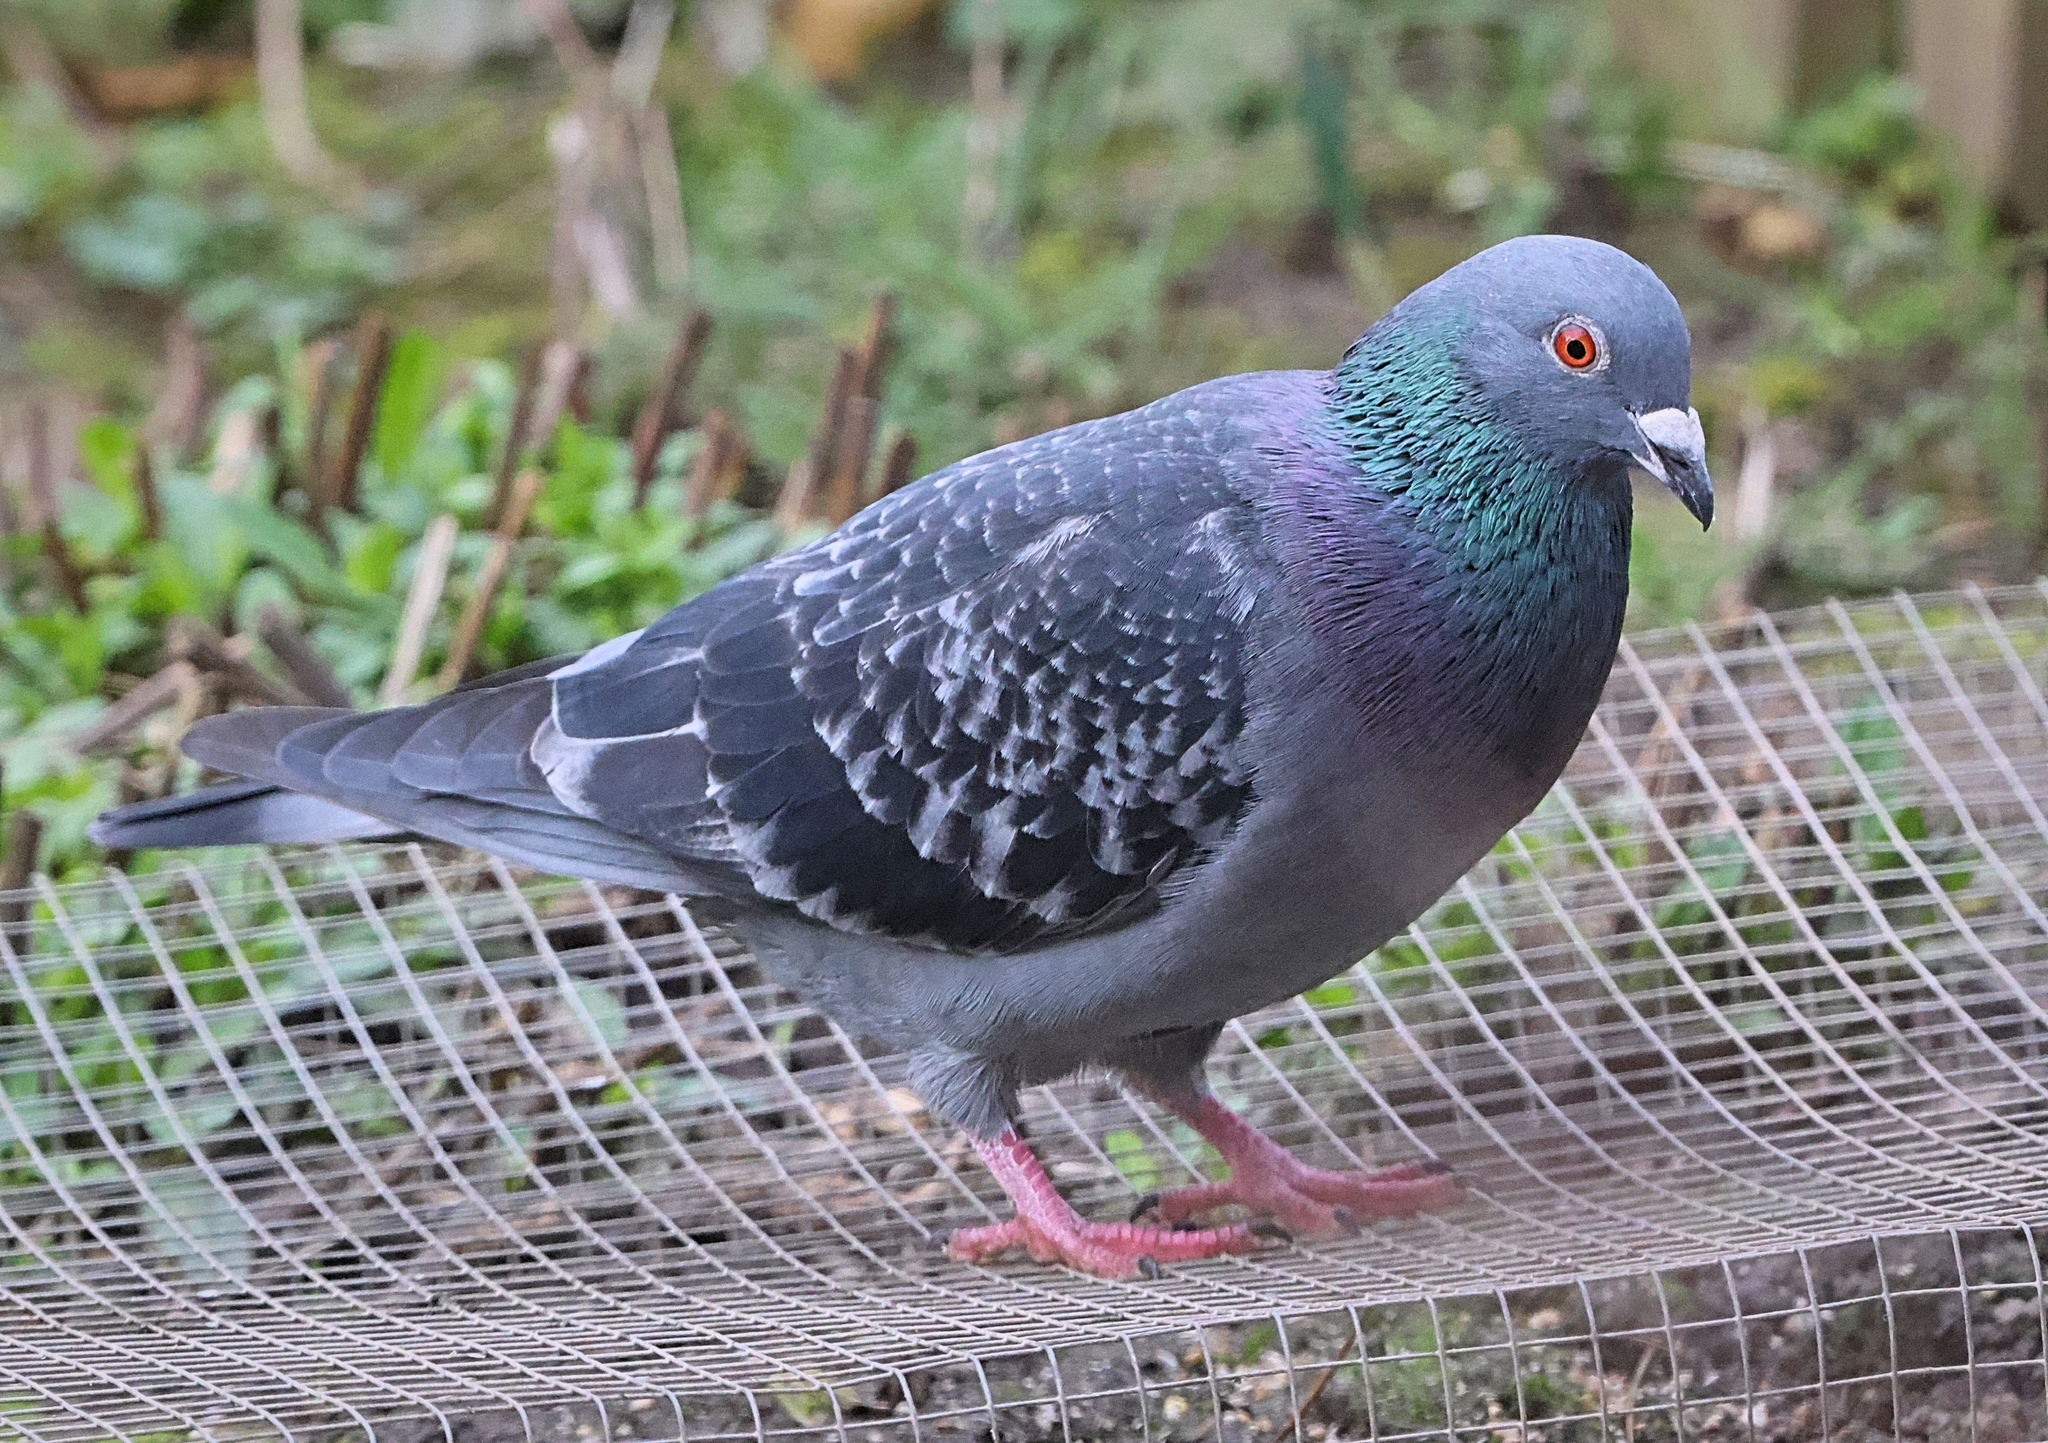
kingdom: Animalia
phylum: Chordata
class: Aves
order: Columbiformes
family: Columbidae
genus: Columba
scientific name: Columba livia
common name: Rock pigeon
